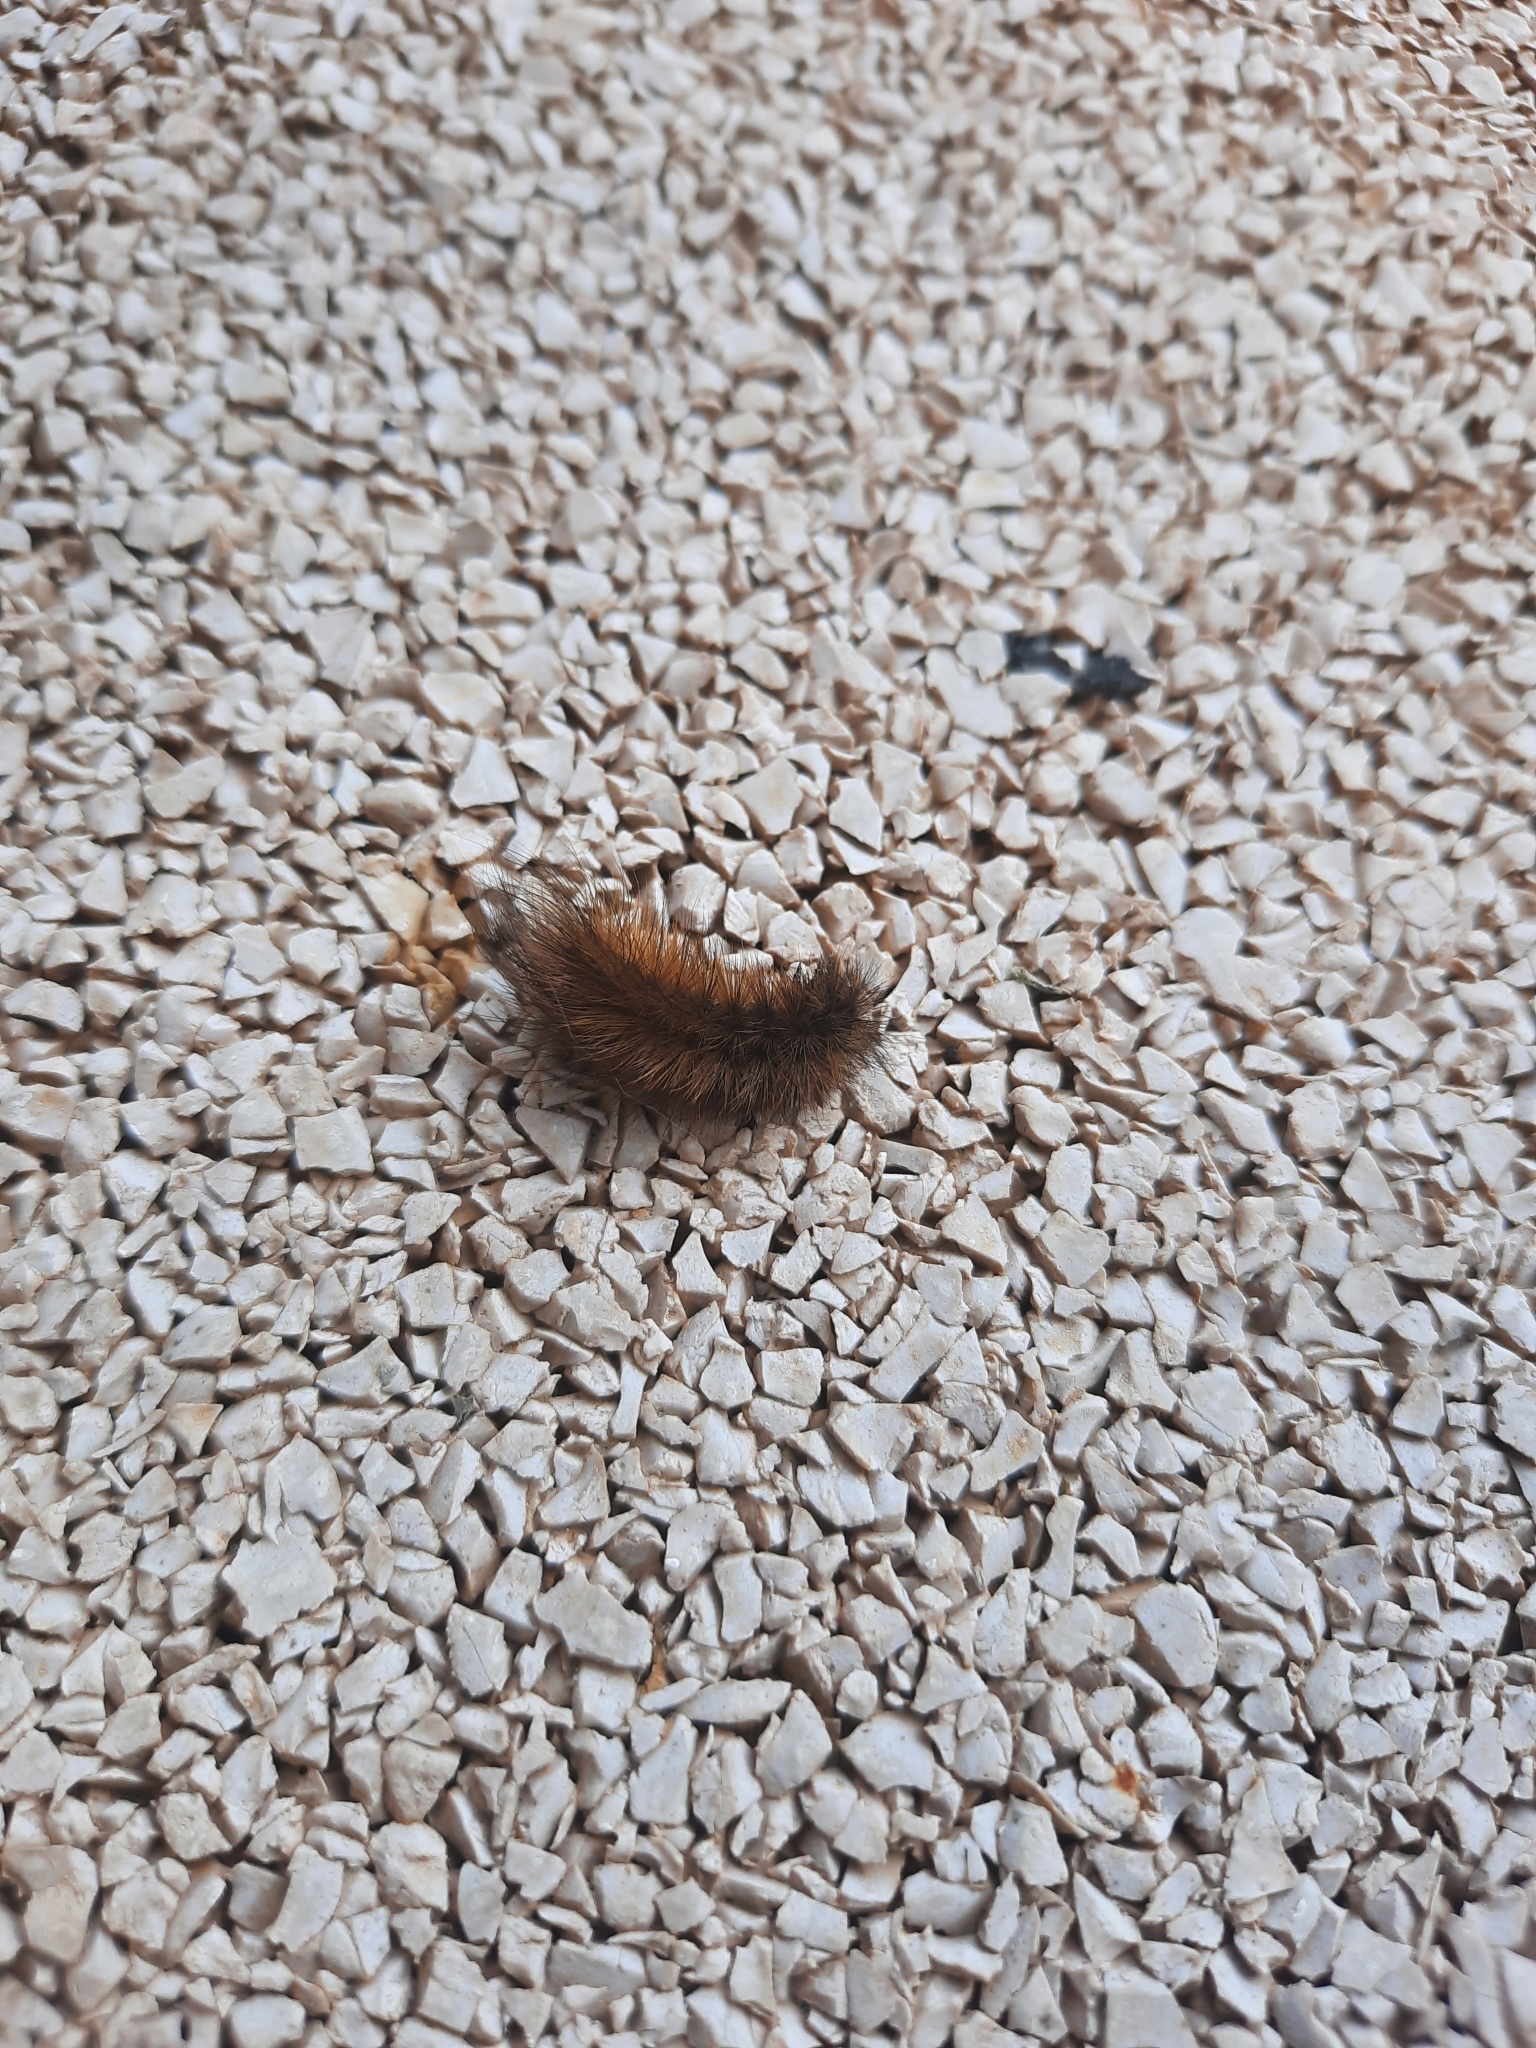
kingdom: Animalia
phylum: Arthropoda
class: Insecta
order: Lepidoptera
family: Erebidae
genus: Phragmatobia
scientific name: Phragmatobia fuliginosa
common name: Ruby tiger
